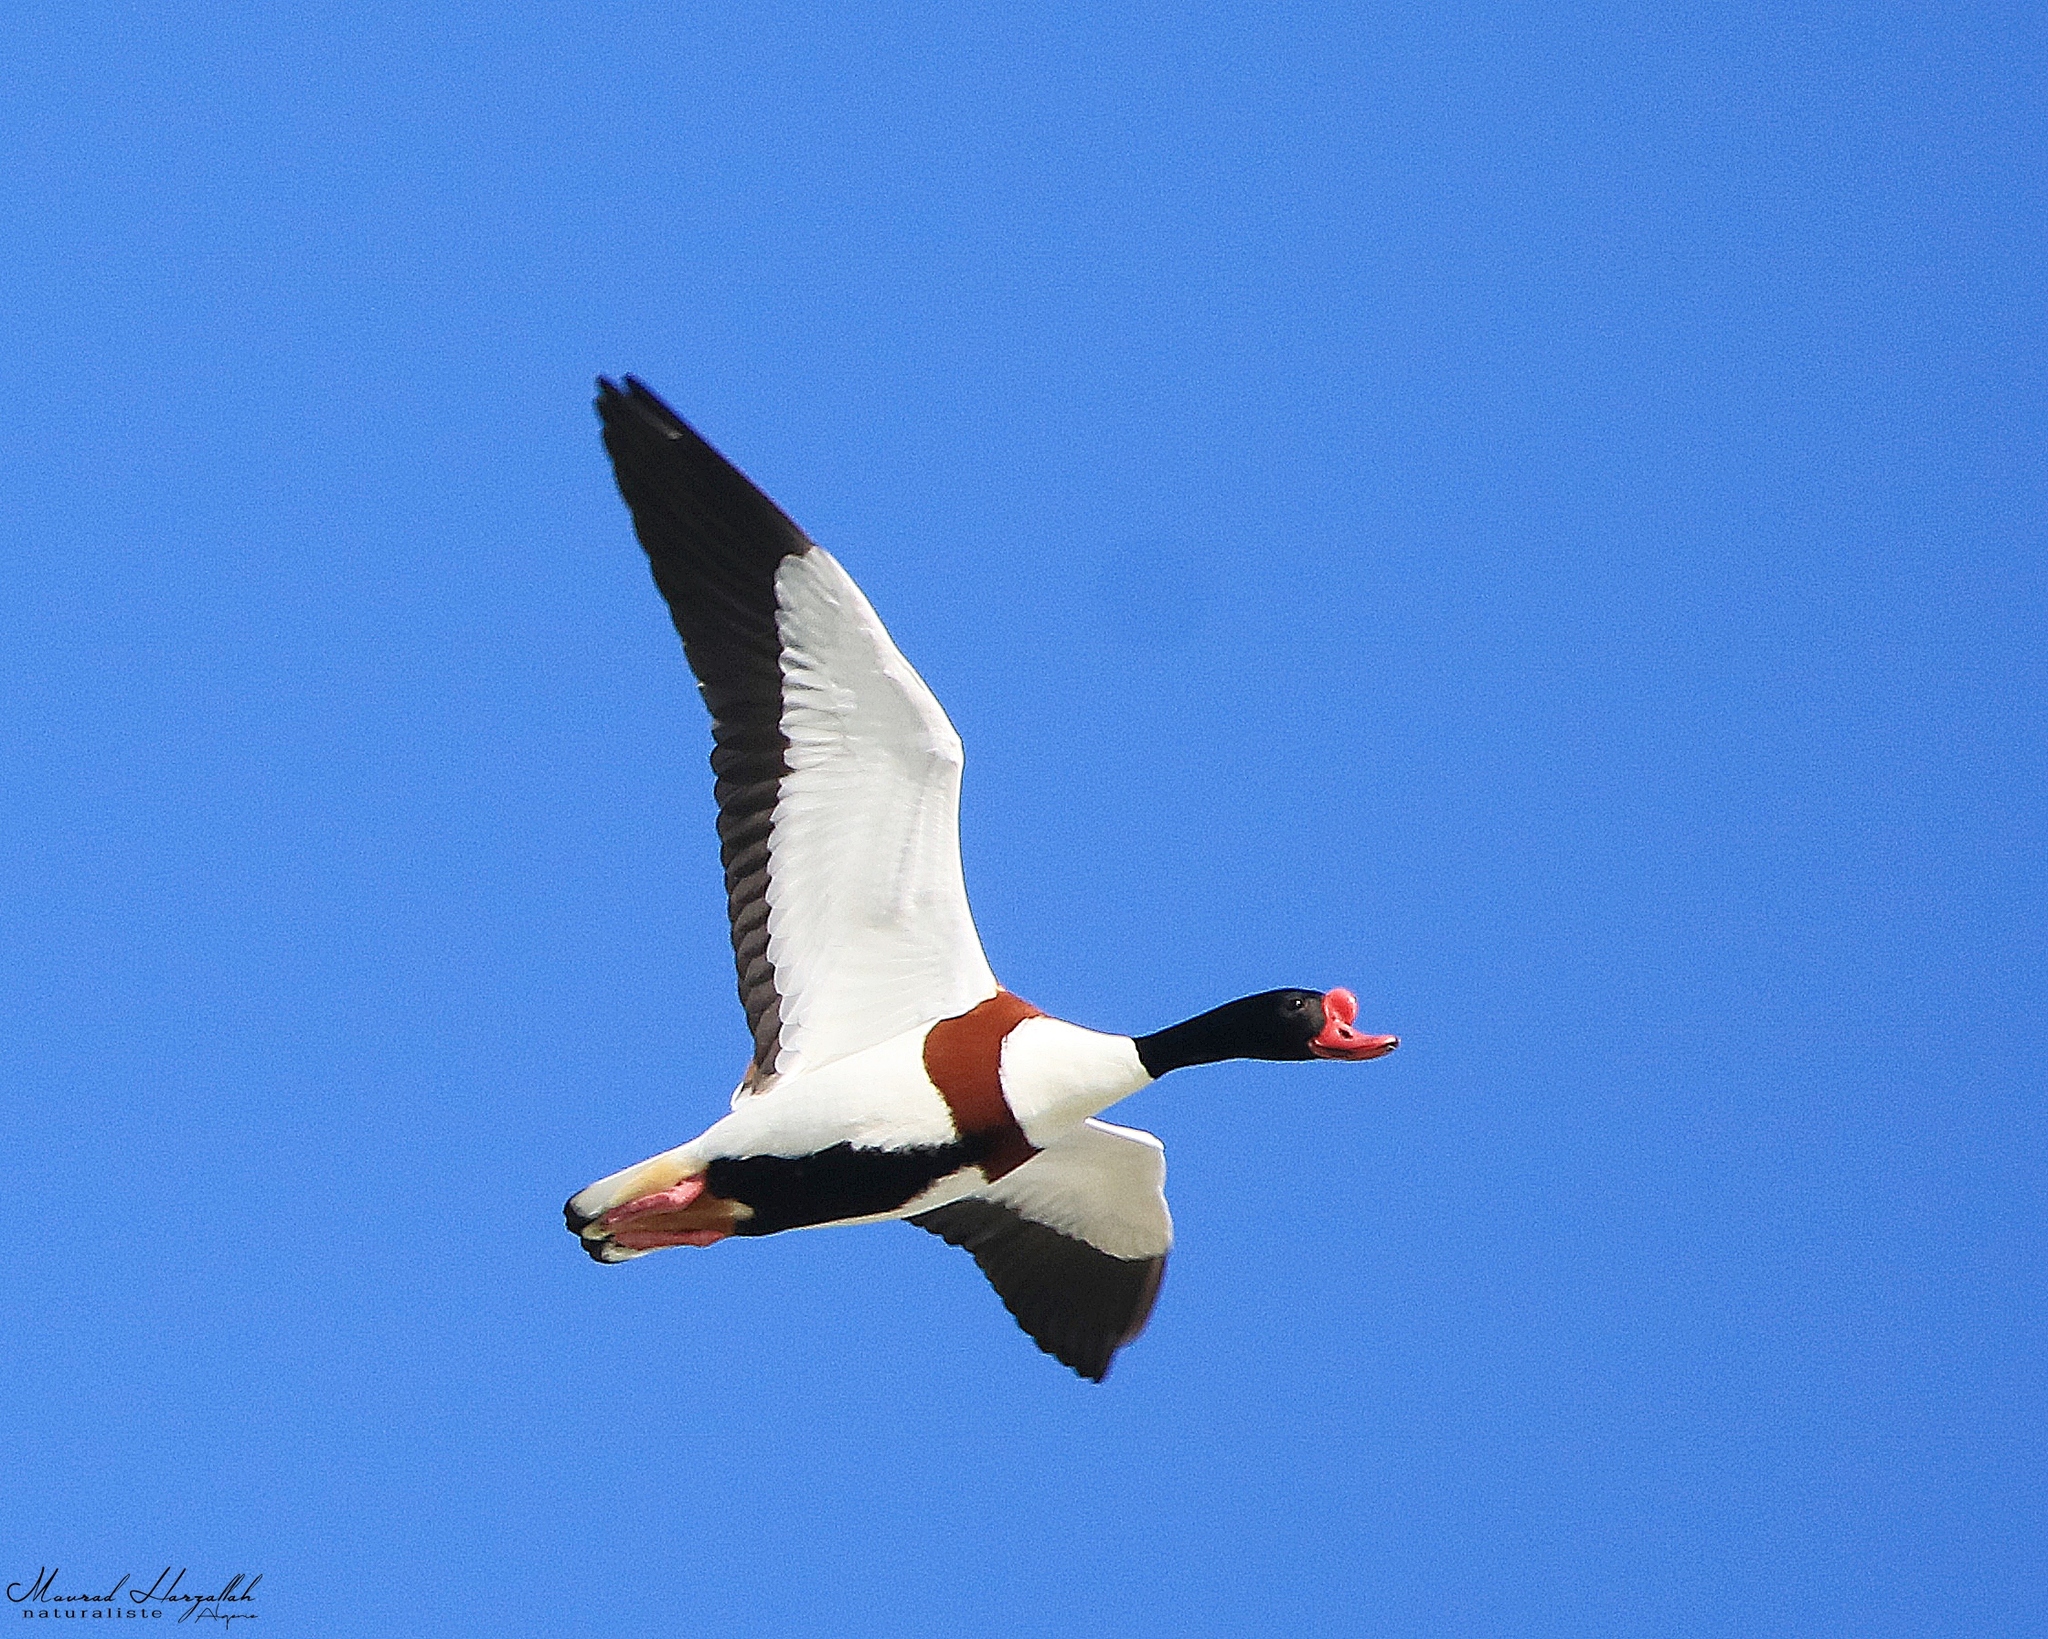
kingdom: Animalia
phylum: Chordata
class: Aves
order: Anseriformes
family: Anatidae
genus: Tadorna
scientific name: Tadorna tadorna
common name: Common shelduck
